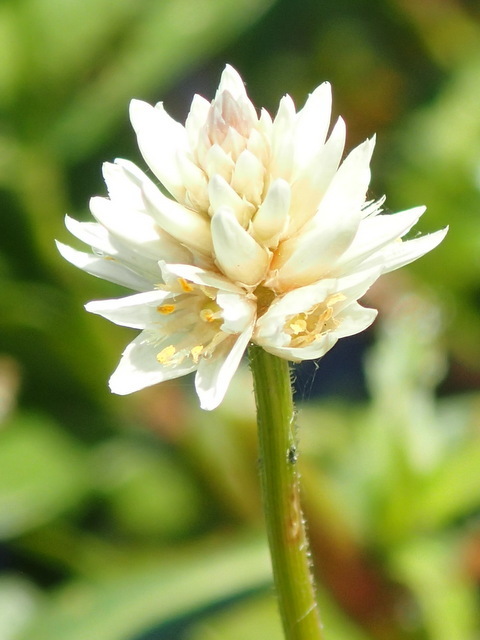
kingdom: Plantae
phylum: Tracheophyta
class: Magnoliopsida
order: Caryophyllales
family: Amaranthaceae
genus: Alternanthera
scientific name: Alternanthera philoxeroides
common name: Alligatorweed
